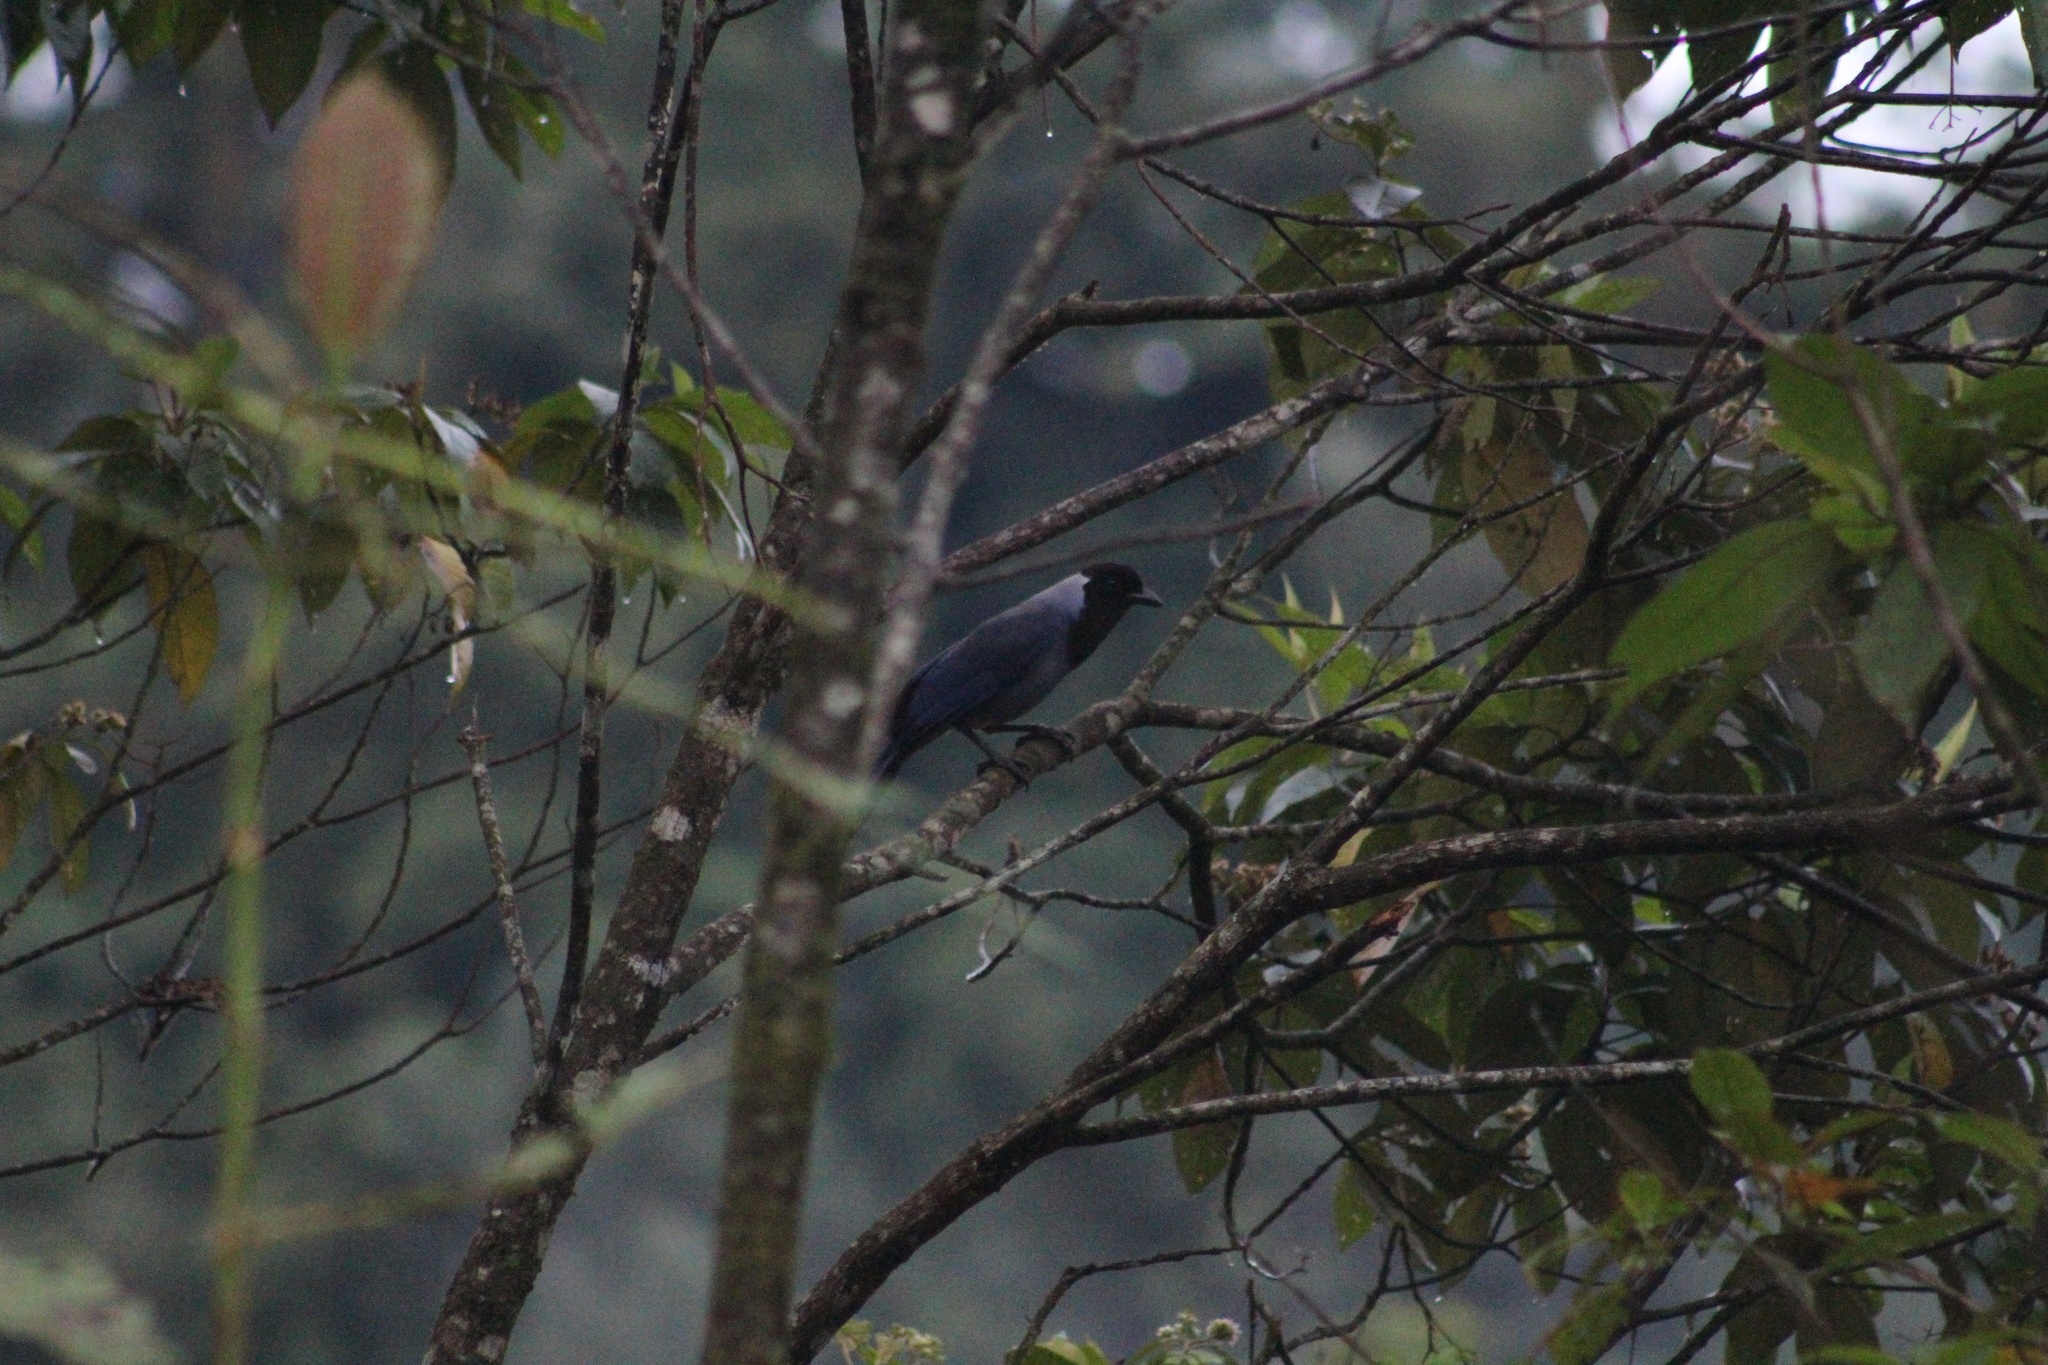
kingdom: Animalia
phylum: Chordata
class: Aves
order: Passeriformes
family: Corvidae
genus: Cyanocorax
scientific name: Cyanocorax violaceus
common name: Violaceous jay
